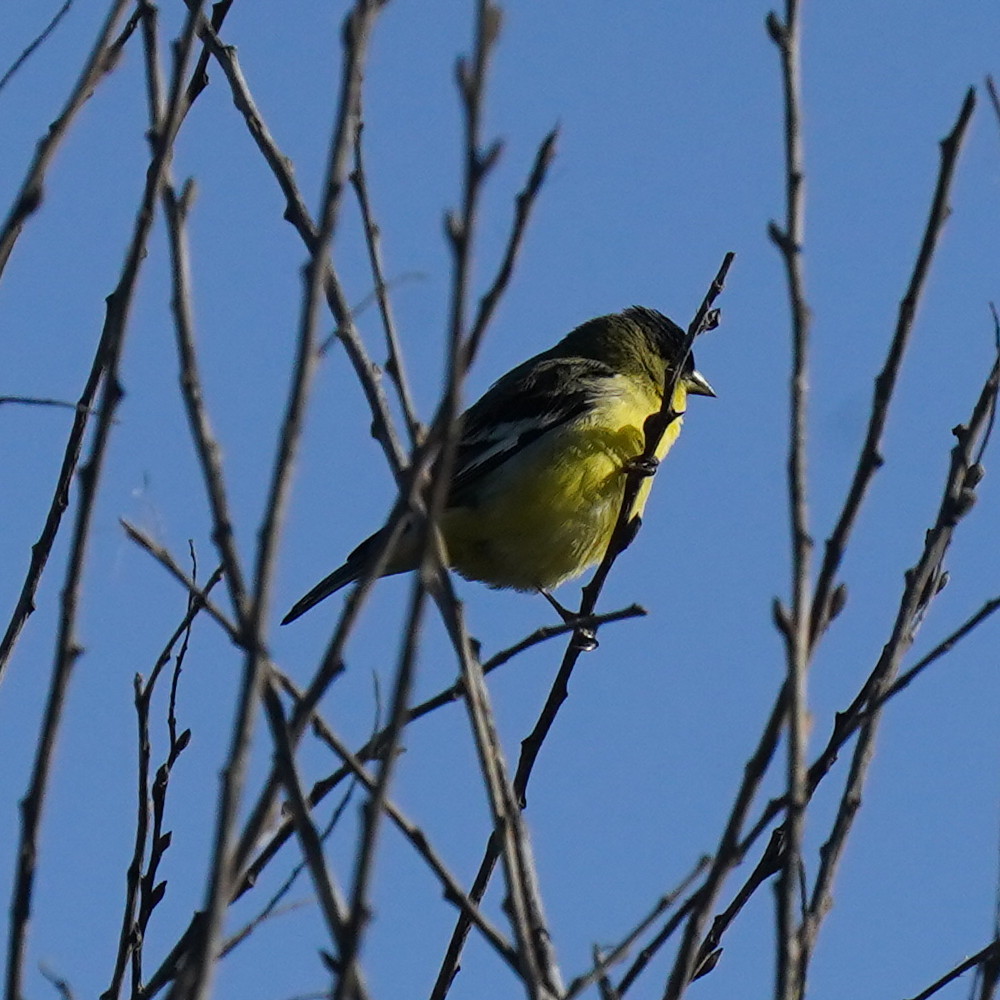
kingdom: Animalia
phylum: Chordata
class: Aves
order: Passeriformes
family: Fringillidae
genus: Spinus
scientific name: Spinus psaltria
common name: Lesser goldfinch
